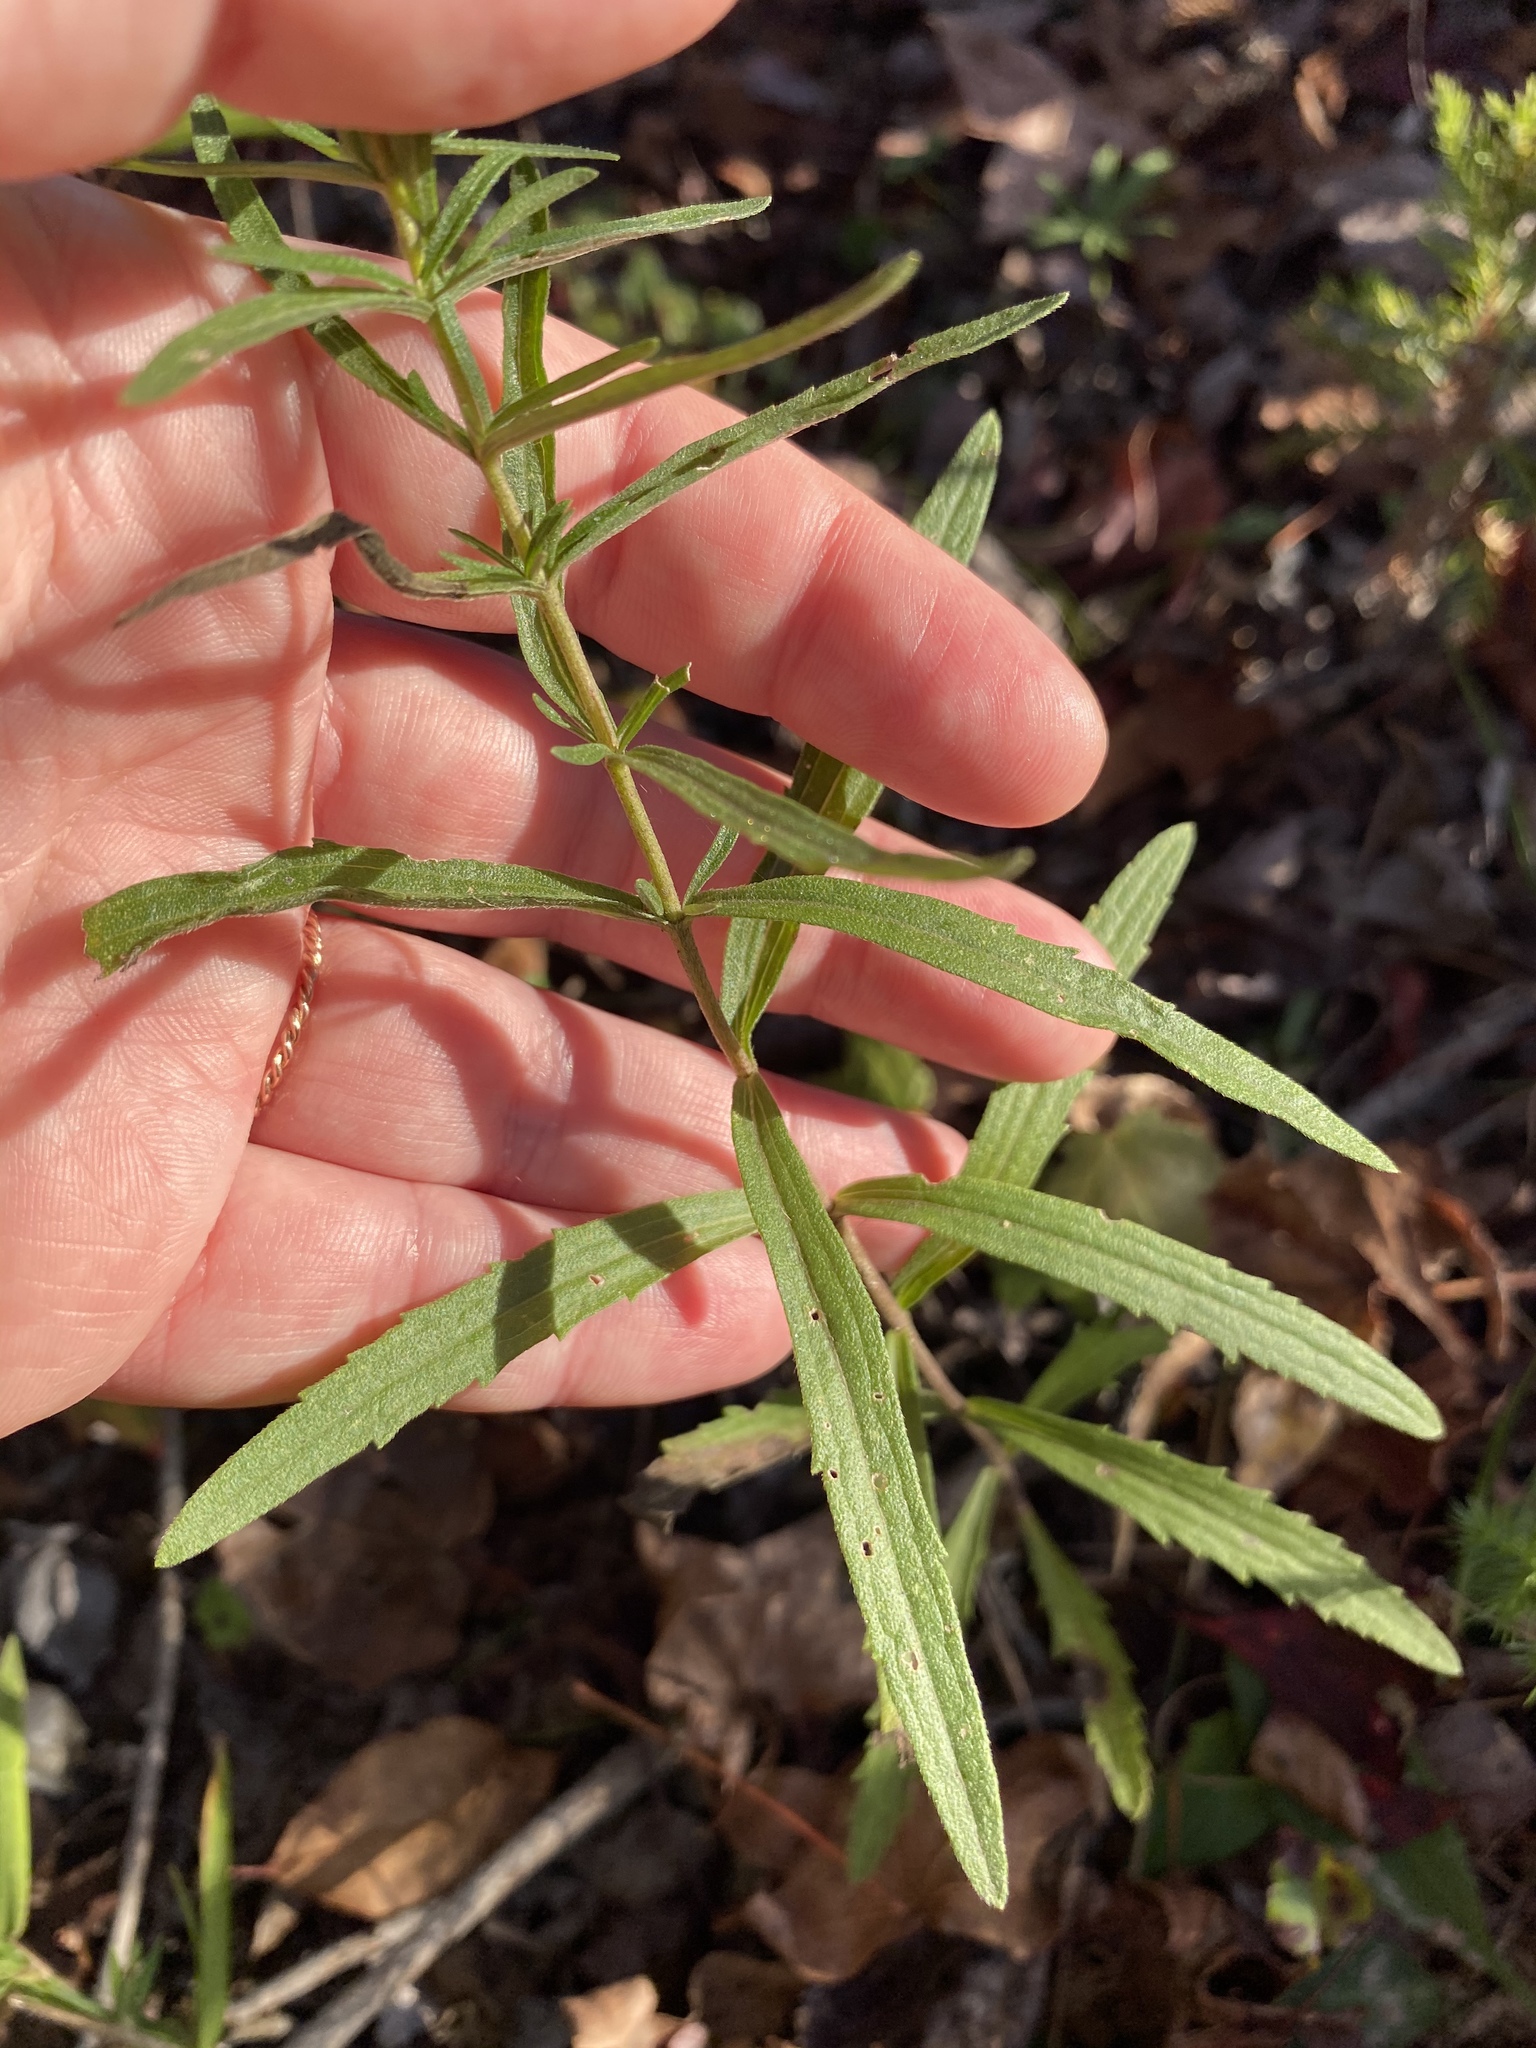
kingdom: Plantae
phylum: Tracheophyta
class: Magnoliopsida
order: Asterales
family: Asteraceae
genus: Eupatorium
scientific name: Eupatorium torreyanum
